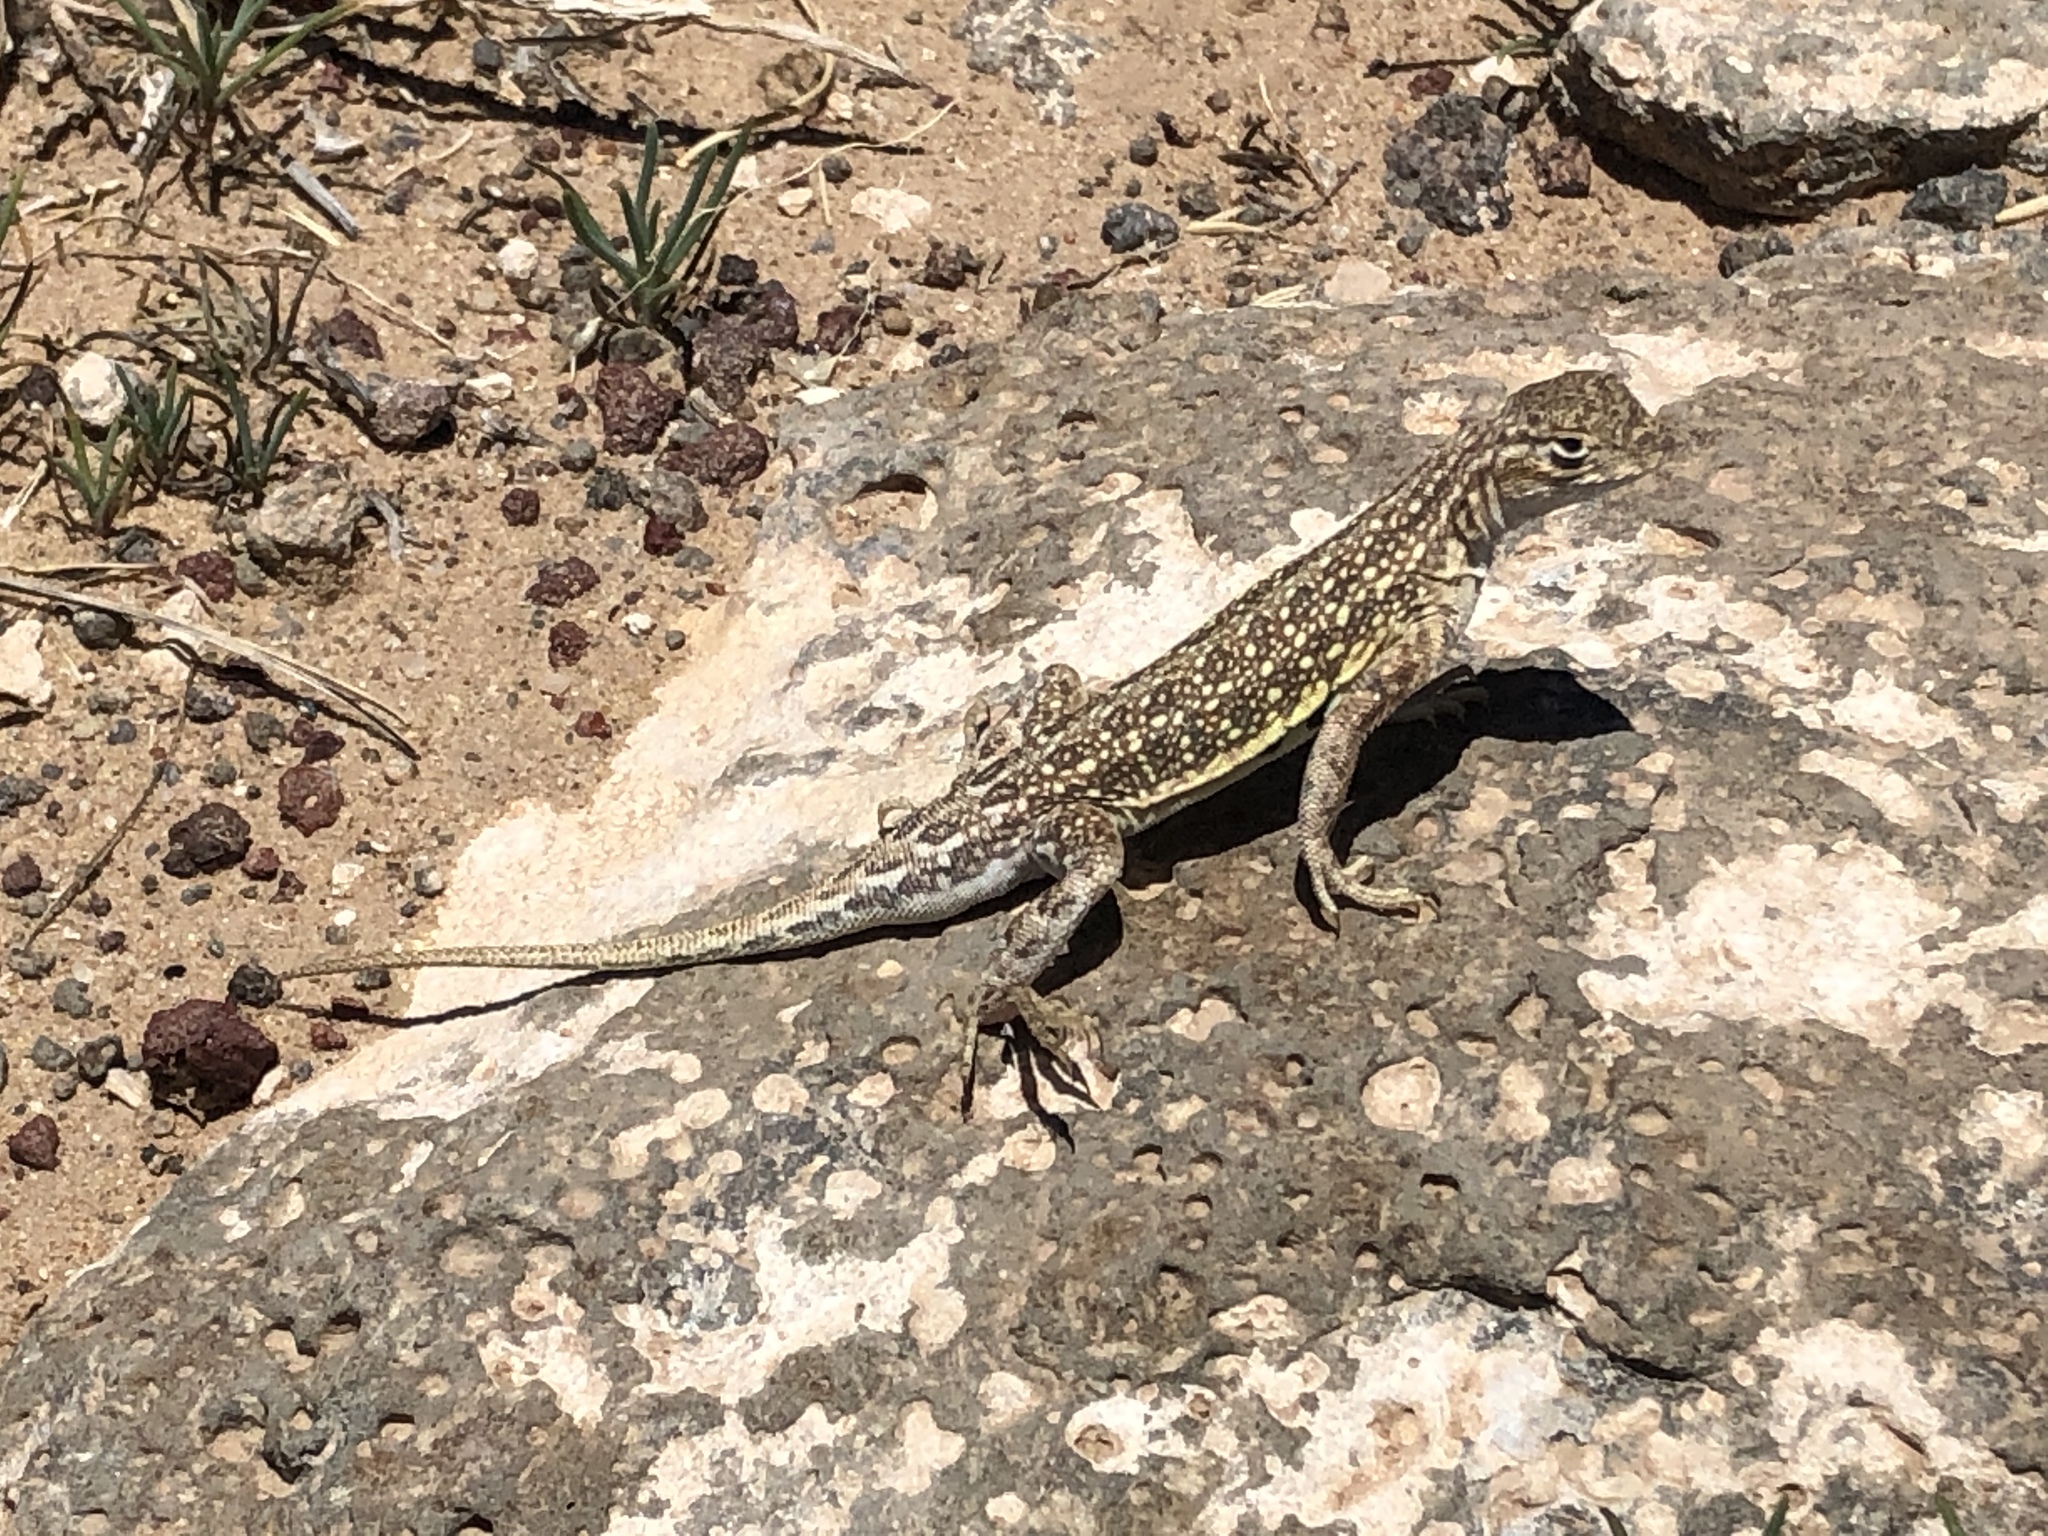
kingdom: Animalia
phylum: Chordata
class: Squamata
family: Phrynosomatidae
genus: Holbrookia
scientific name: Holbrookia maculata
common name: Lesser earless lizard
